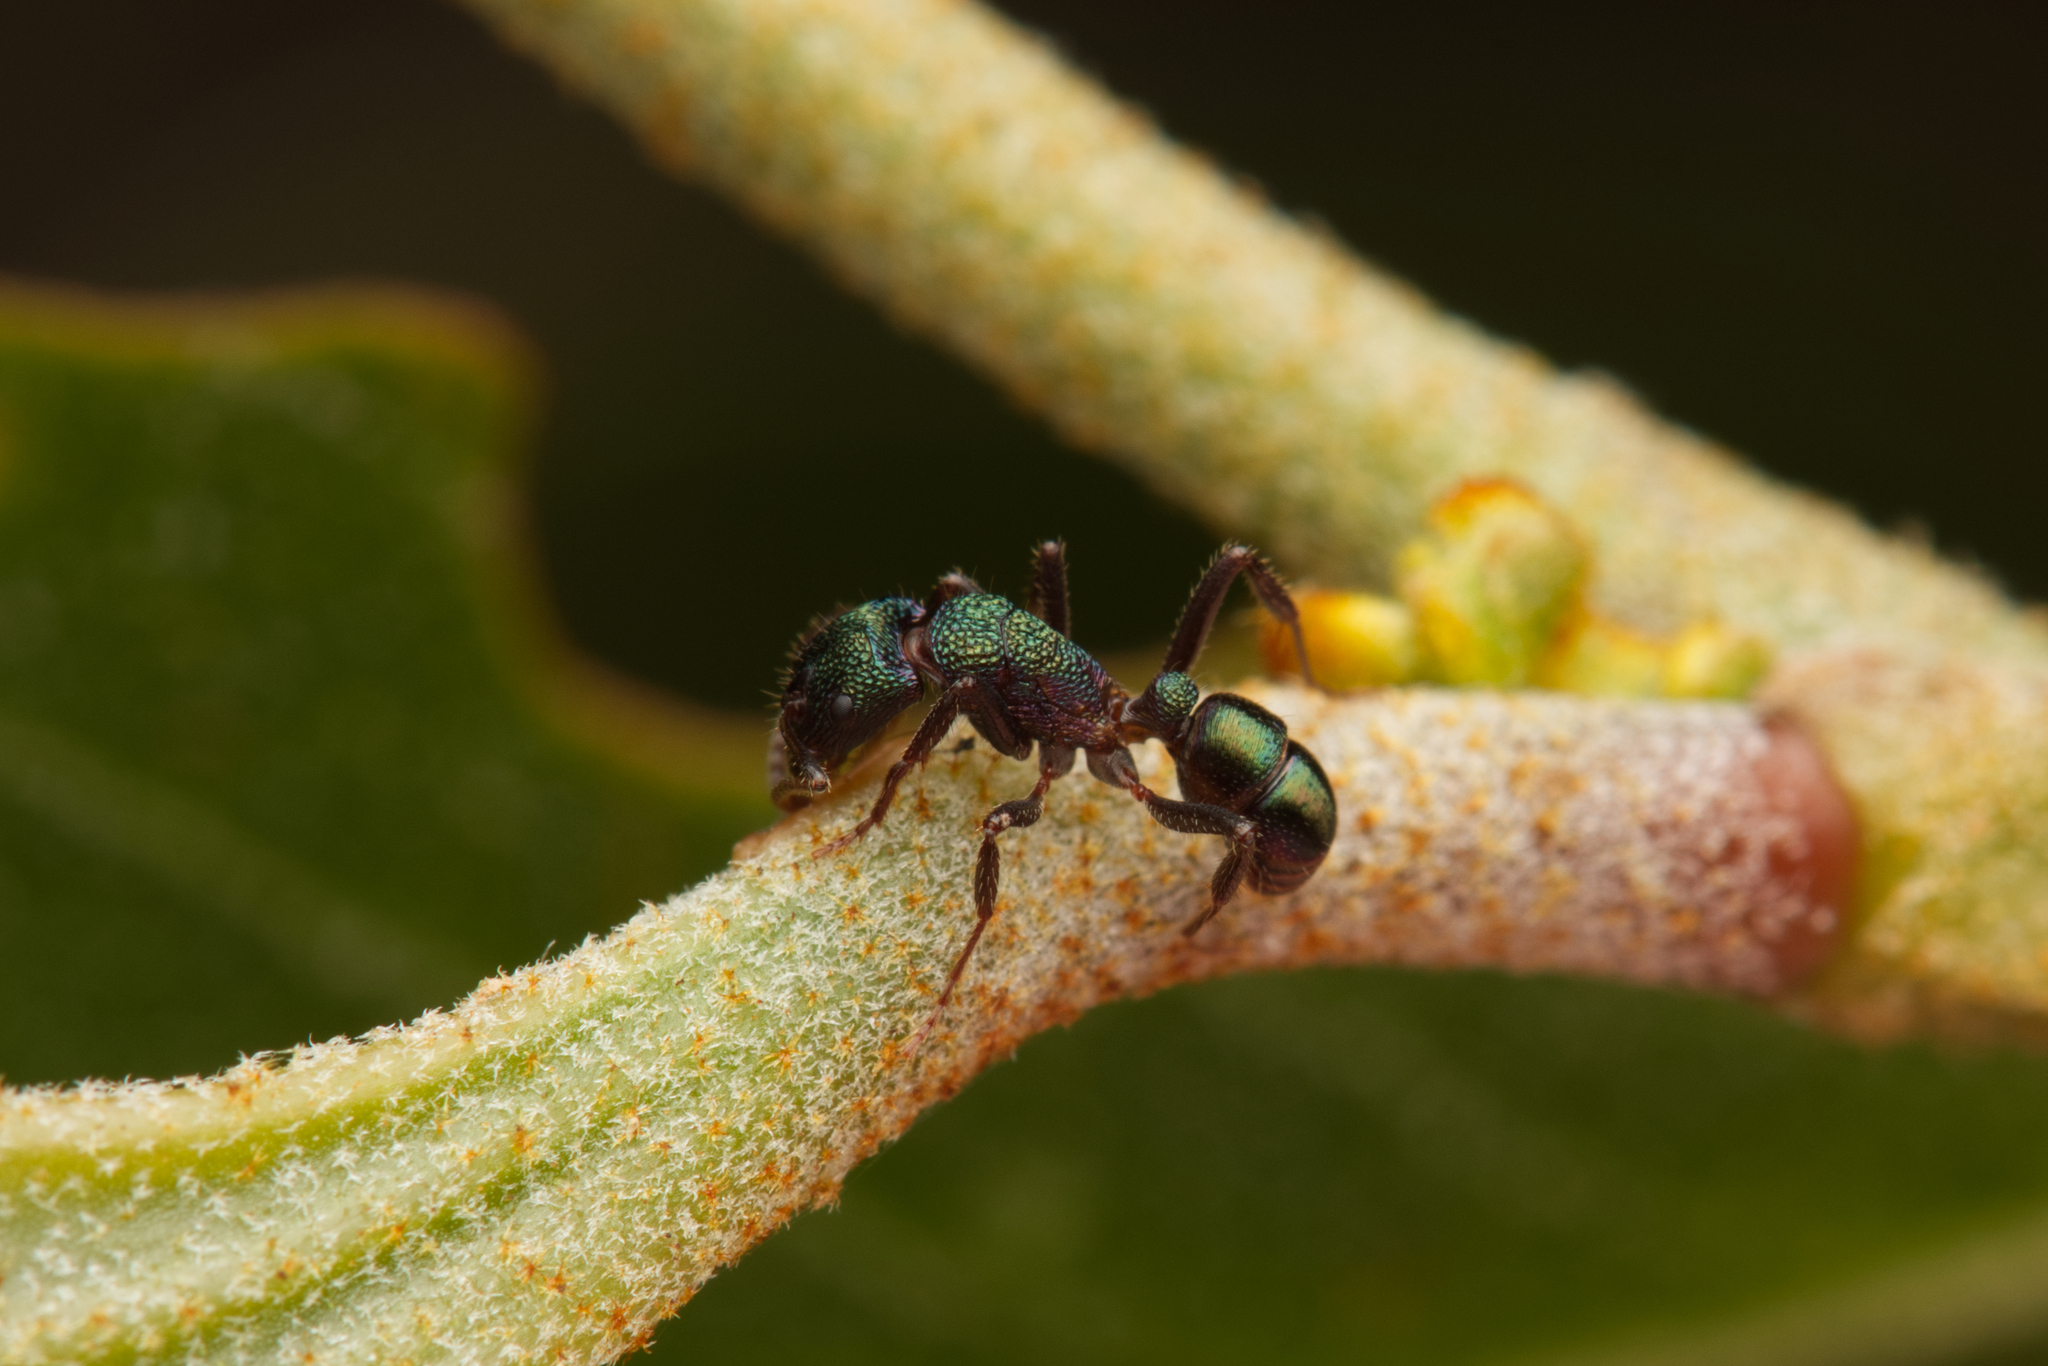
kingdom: Animalia
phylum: Arthropoda
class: Insecta
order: Hymenoptera
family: Formicidae
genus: Rhytidoponera
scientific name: Rhytidoponera metallica
